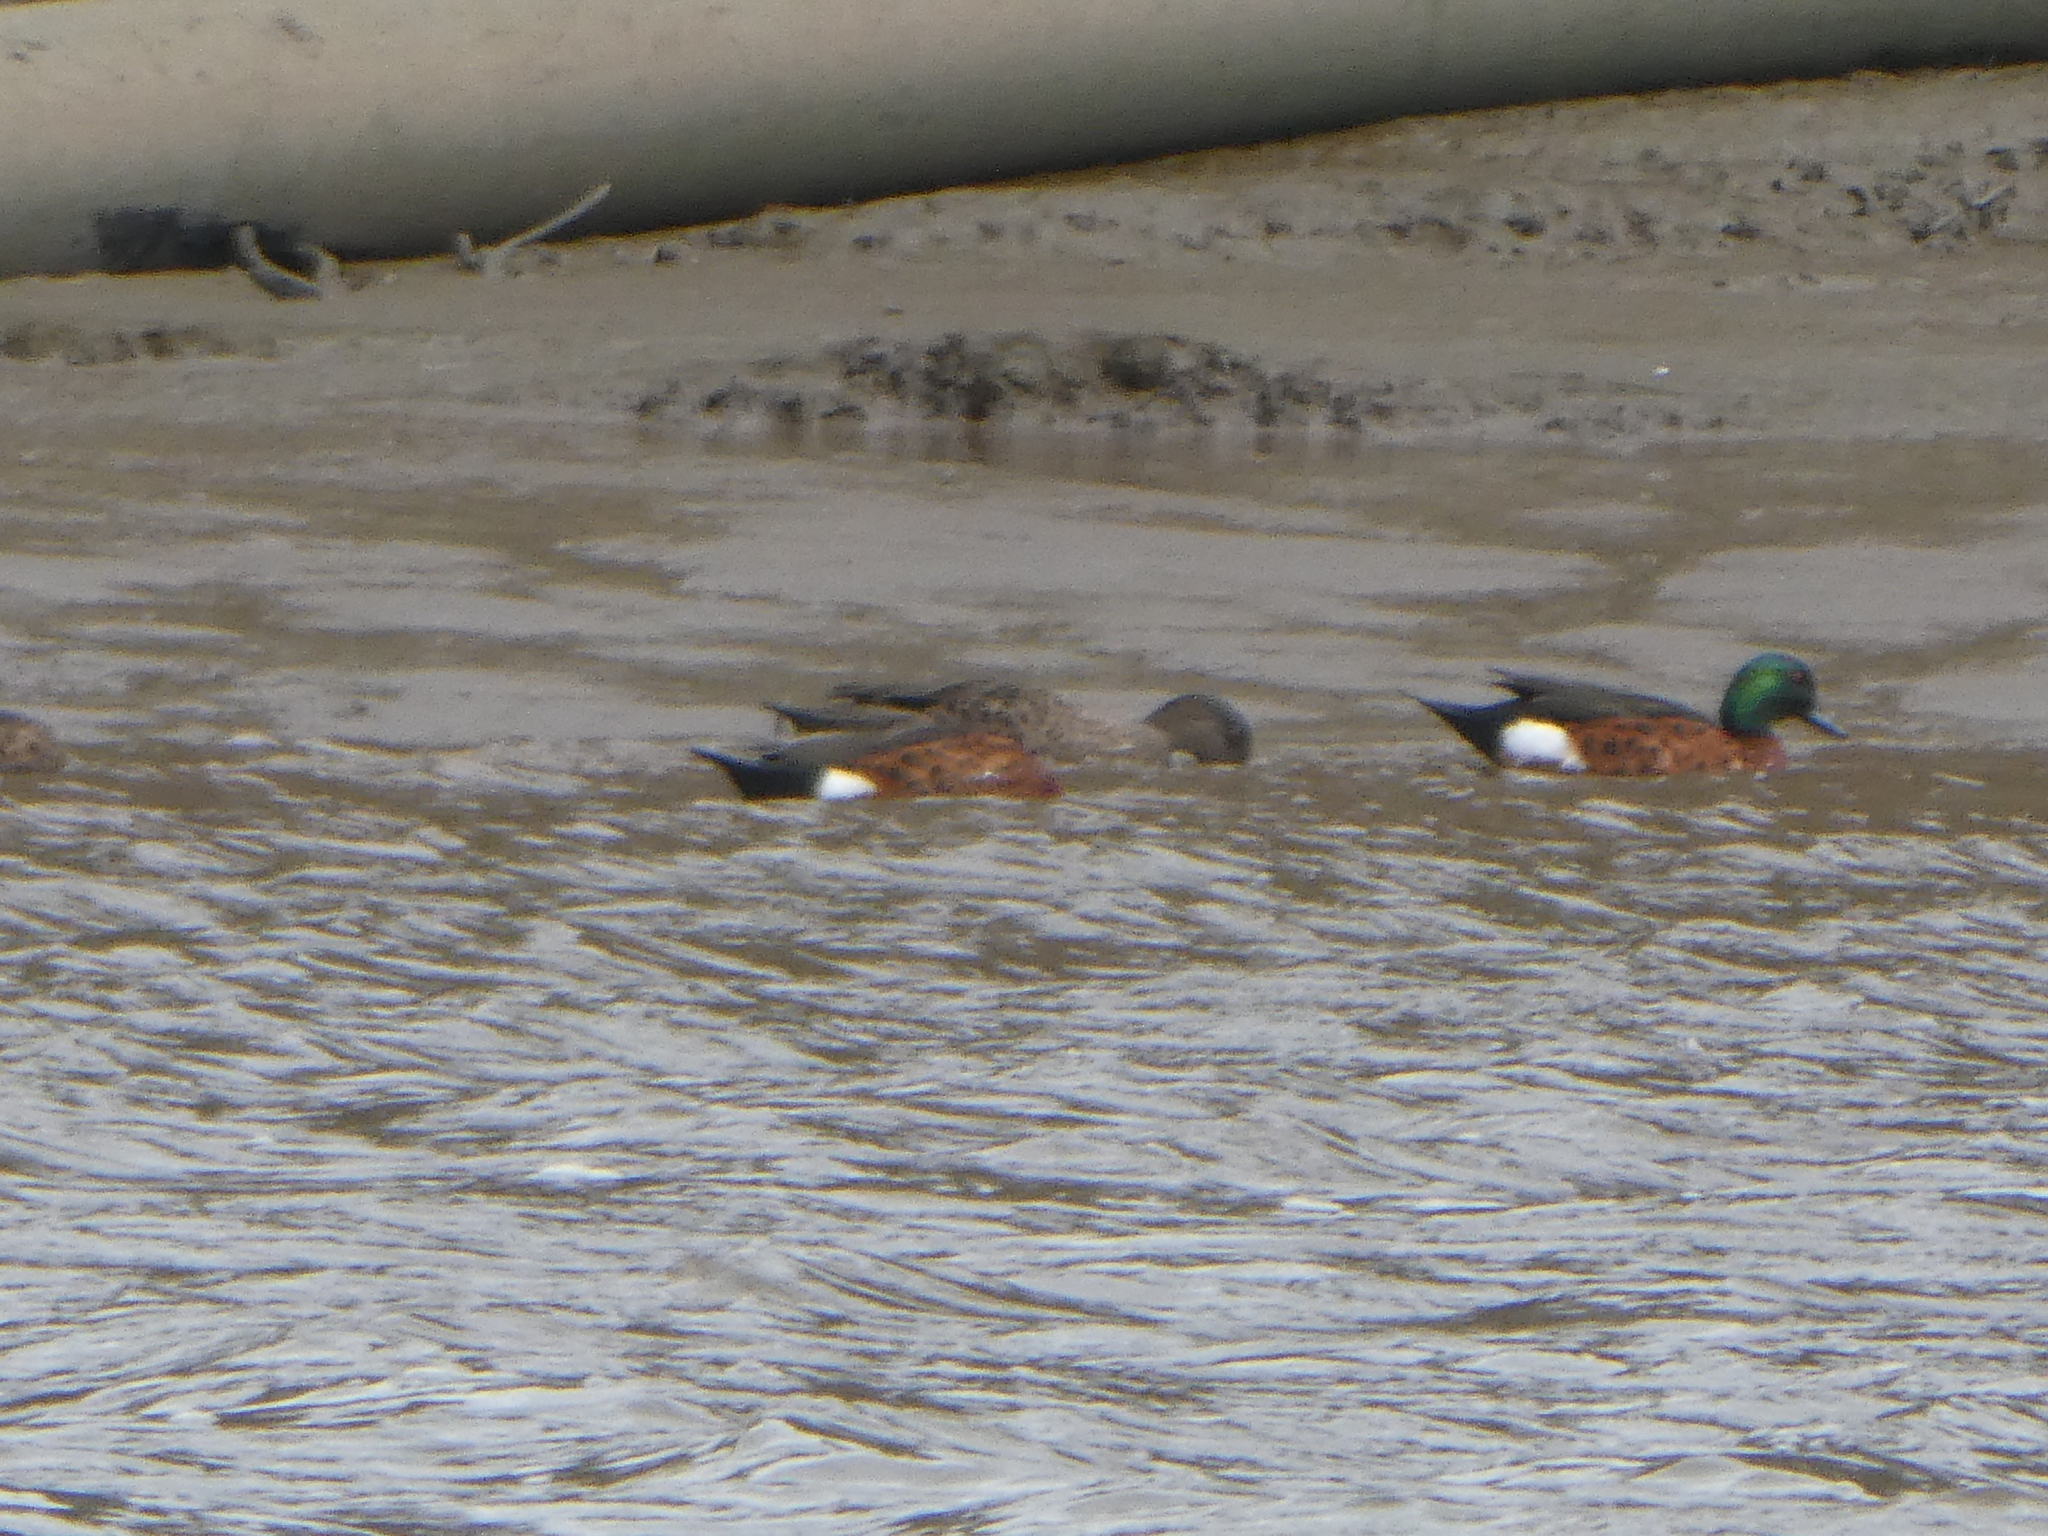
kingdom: Animalia
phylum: Chordata
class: Aves
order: Anseriformes
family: Anatidae
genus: Anas
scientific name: Anas castanea
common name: Chestnut teal
